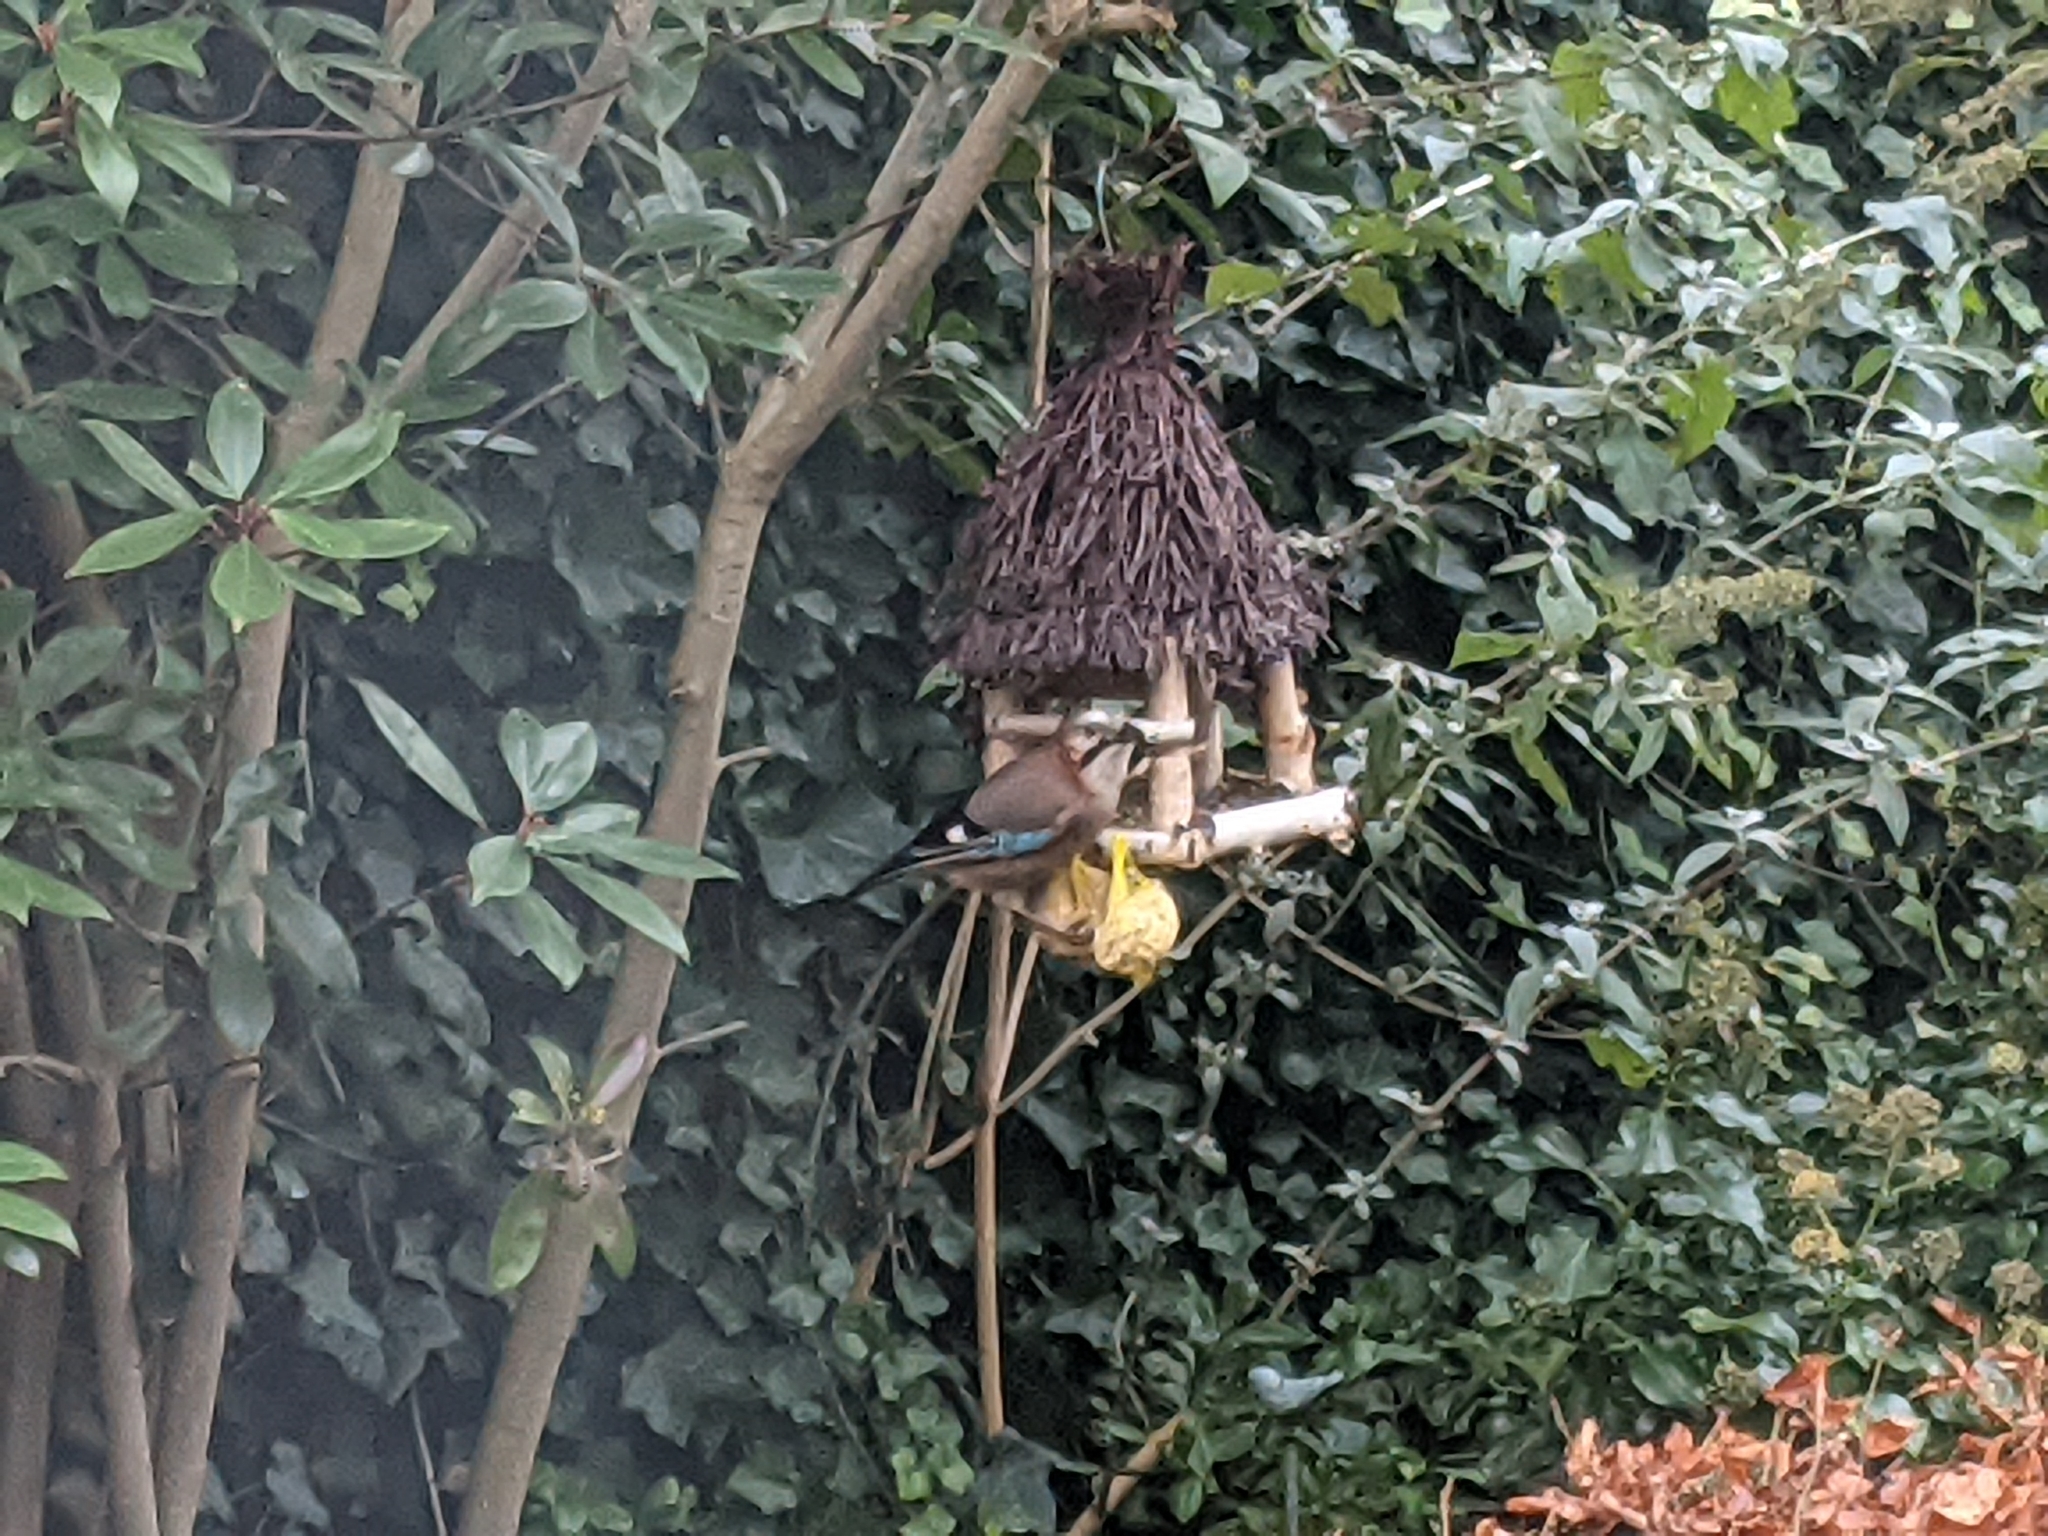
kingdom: Animalia
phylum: Chordata
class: Aves
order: Passeriformes
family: Corvidae
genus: Garrulus
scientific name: Garrulus glandarius
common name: Eurasian jay
